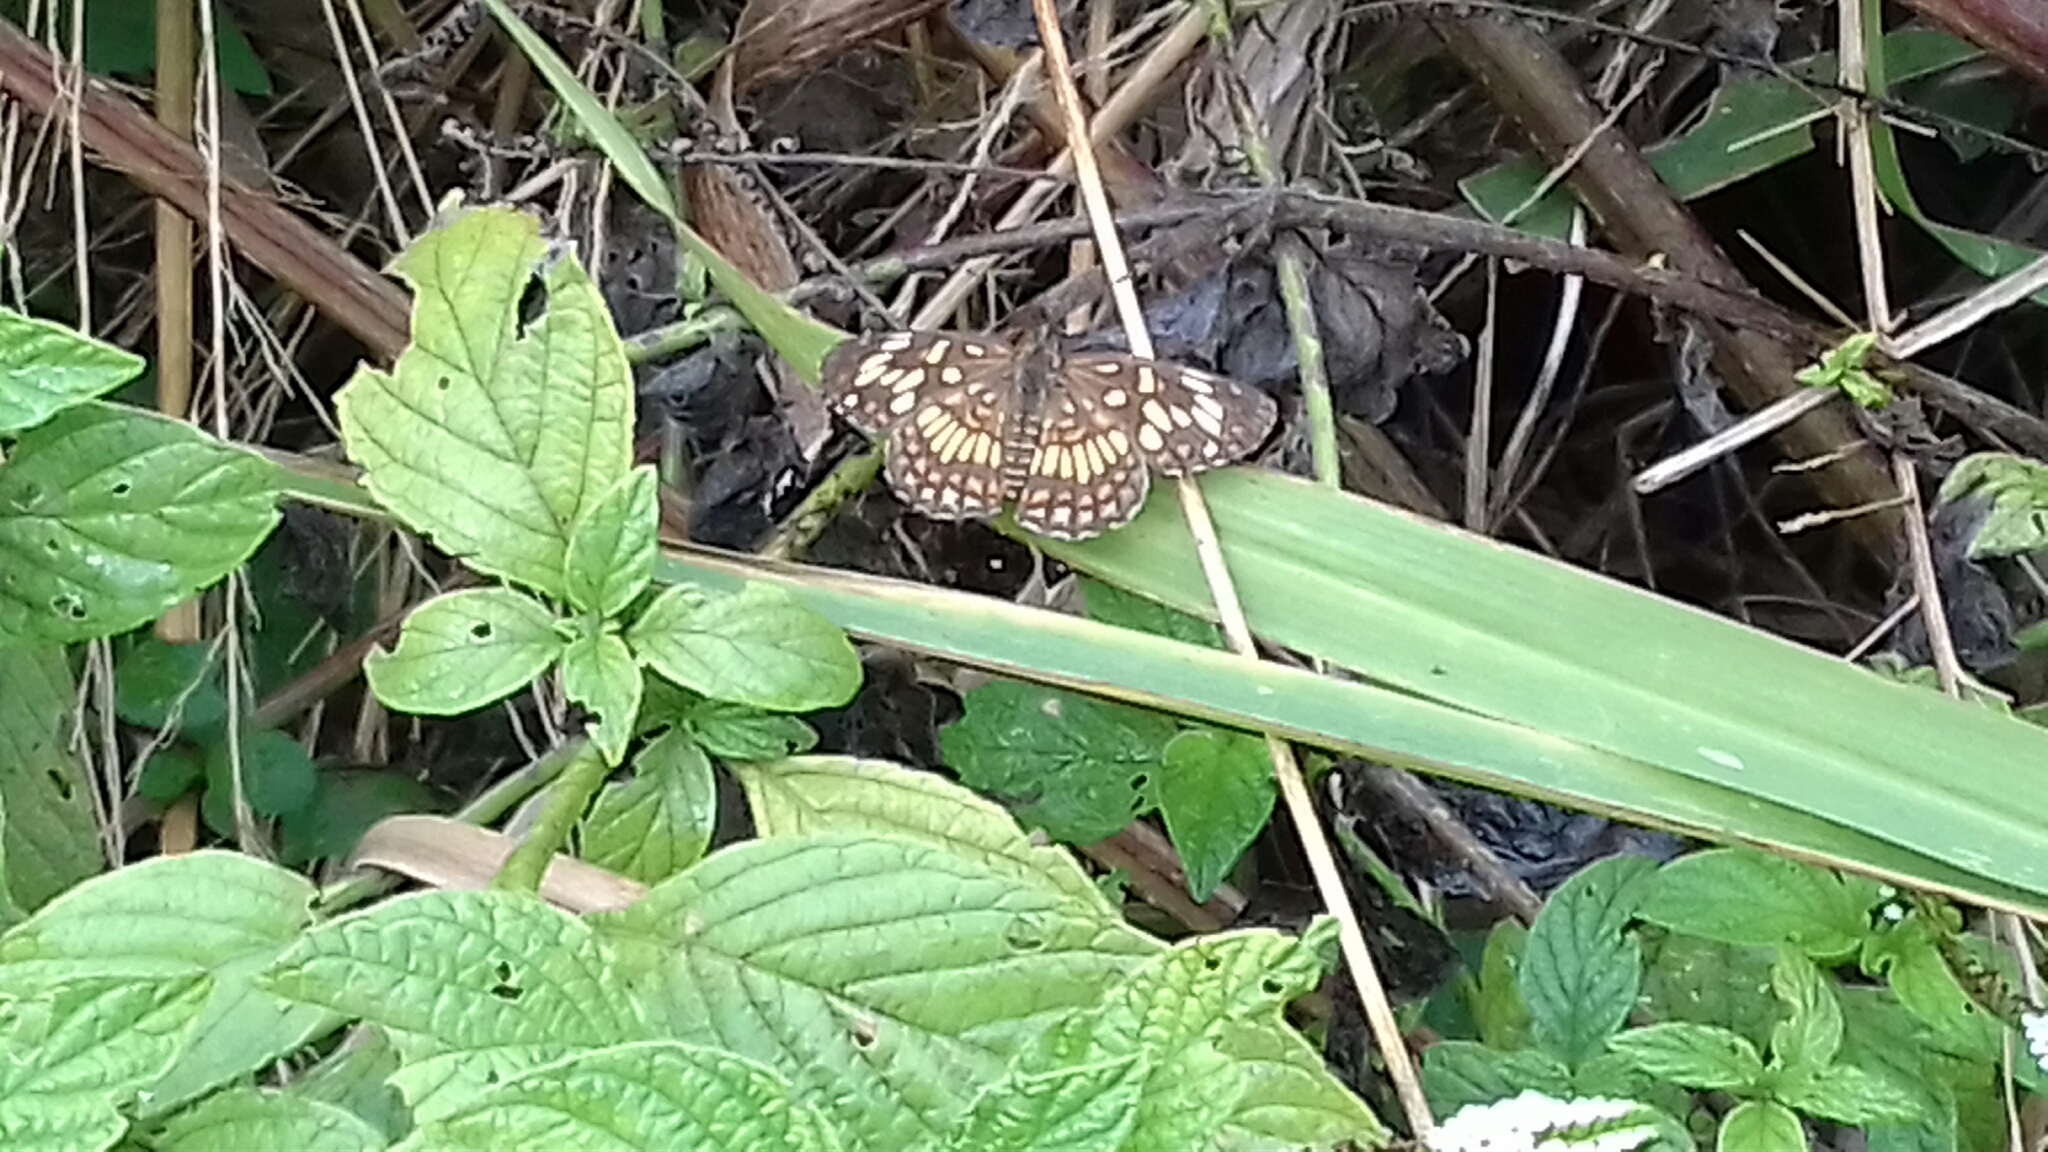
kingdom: Animalia
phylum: Arthropoda
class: Insecta
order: Lepidoptera
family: Nymphalidae
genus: Thessalia
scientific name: Thessalia theona
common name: Nymphalid moth
